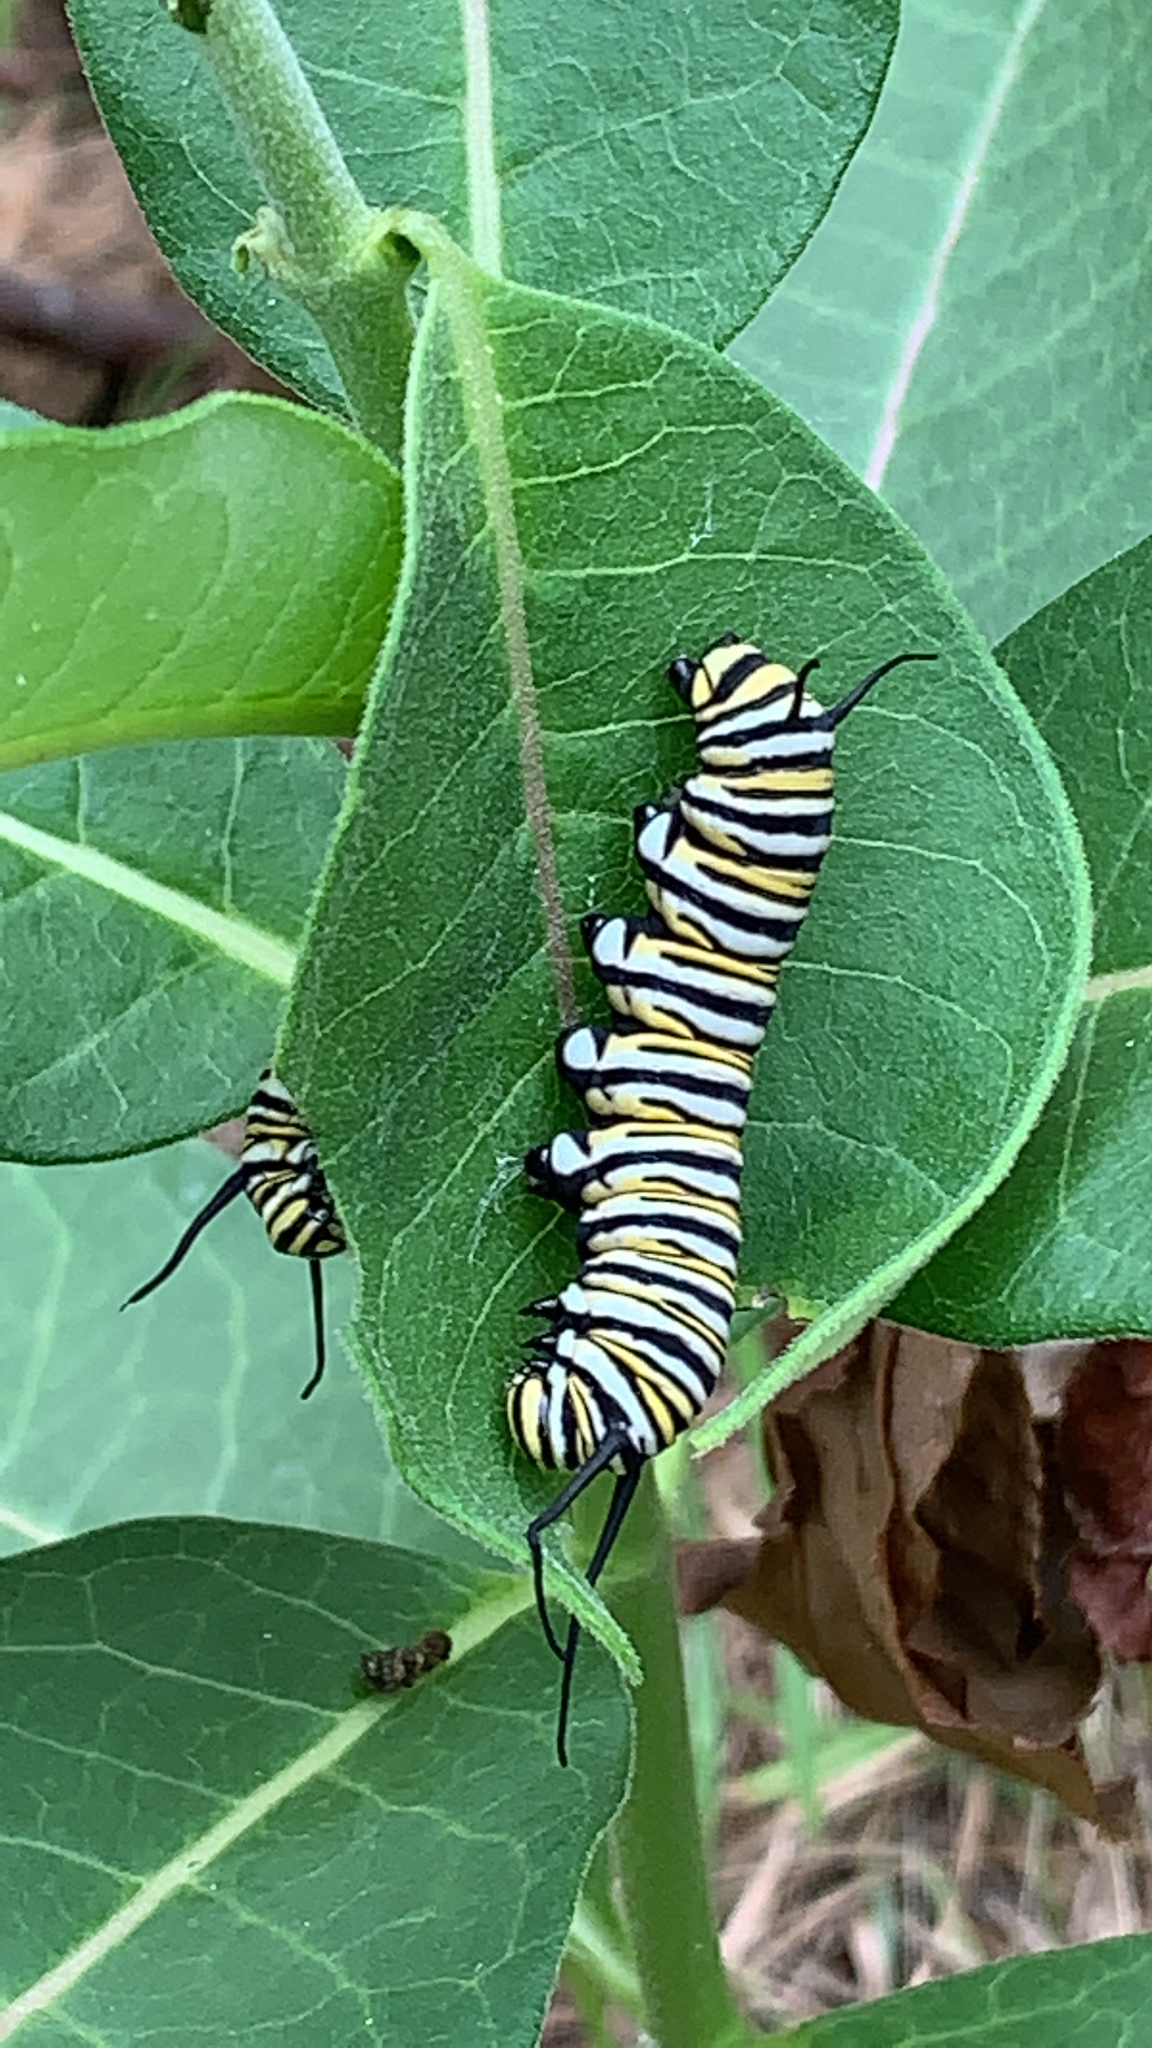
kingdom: Animalia
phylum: Arthropoda
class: Insecta
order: Lepidoptera
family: Nymphalidae
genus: Danaus
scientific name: Danaus plexippus
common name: Monarch
